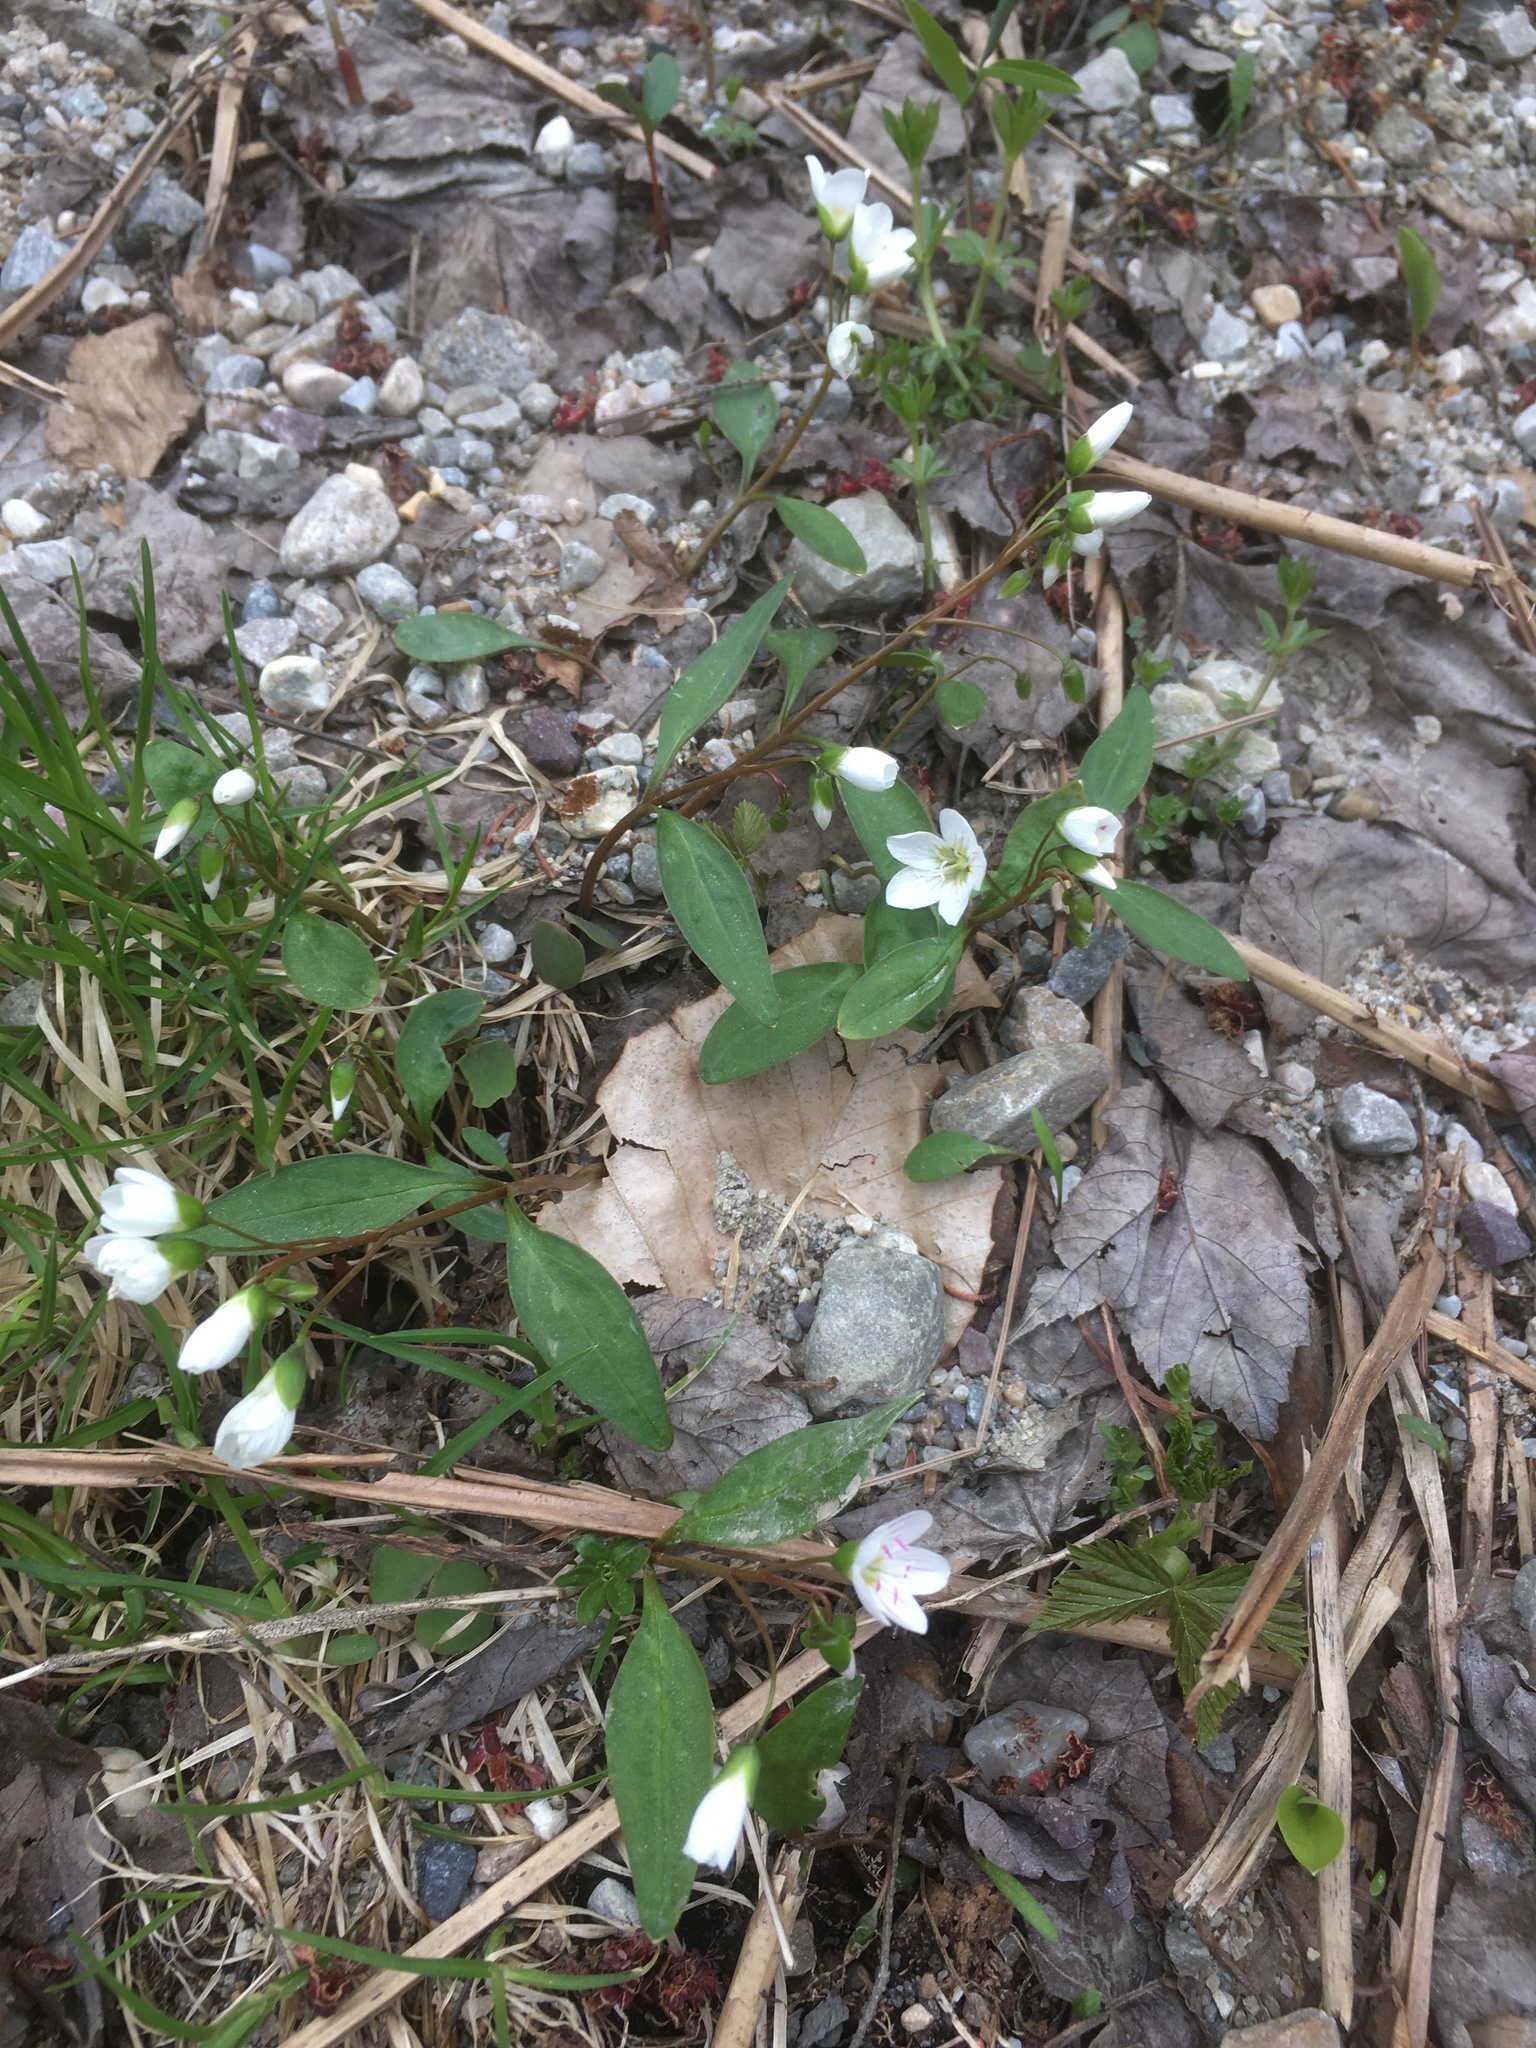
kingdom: Plantae
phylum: Tracheophyta
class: Magnoliopsida
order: Caryophyllales
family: Montiaceae
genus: Claytonia
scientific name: Claytonia caroliniana
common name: Carolina spring beauty
